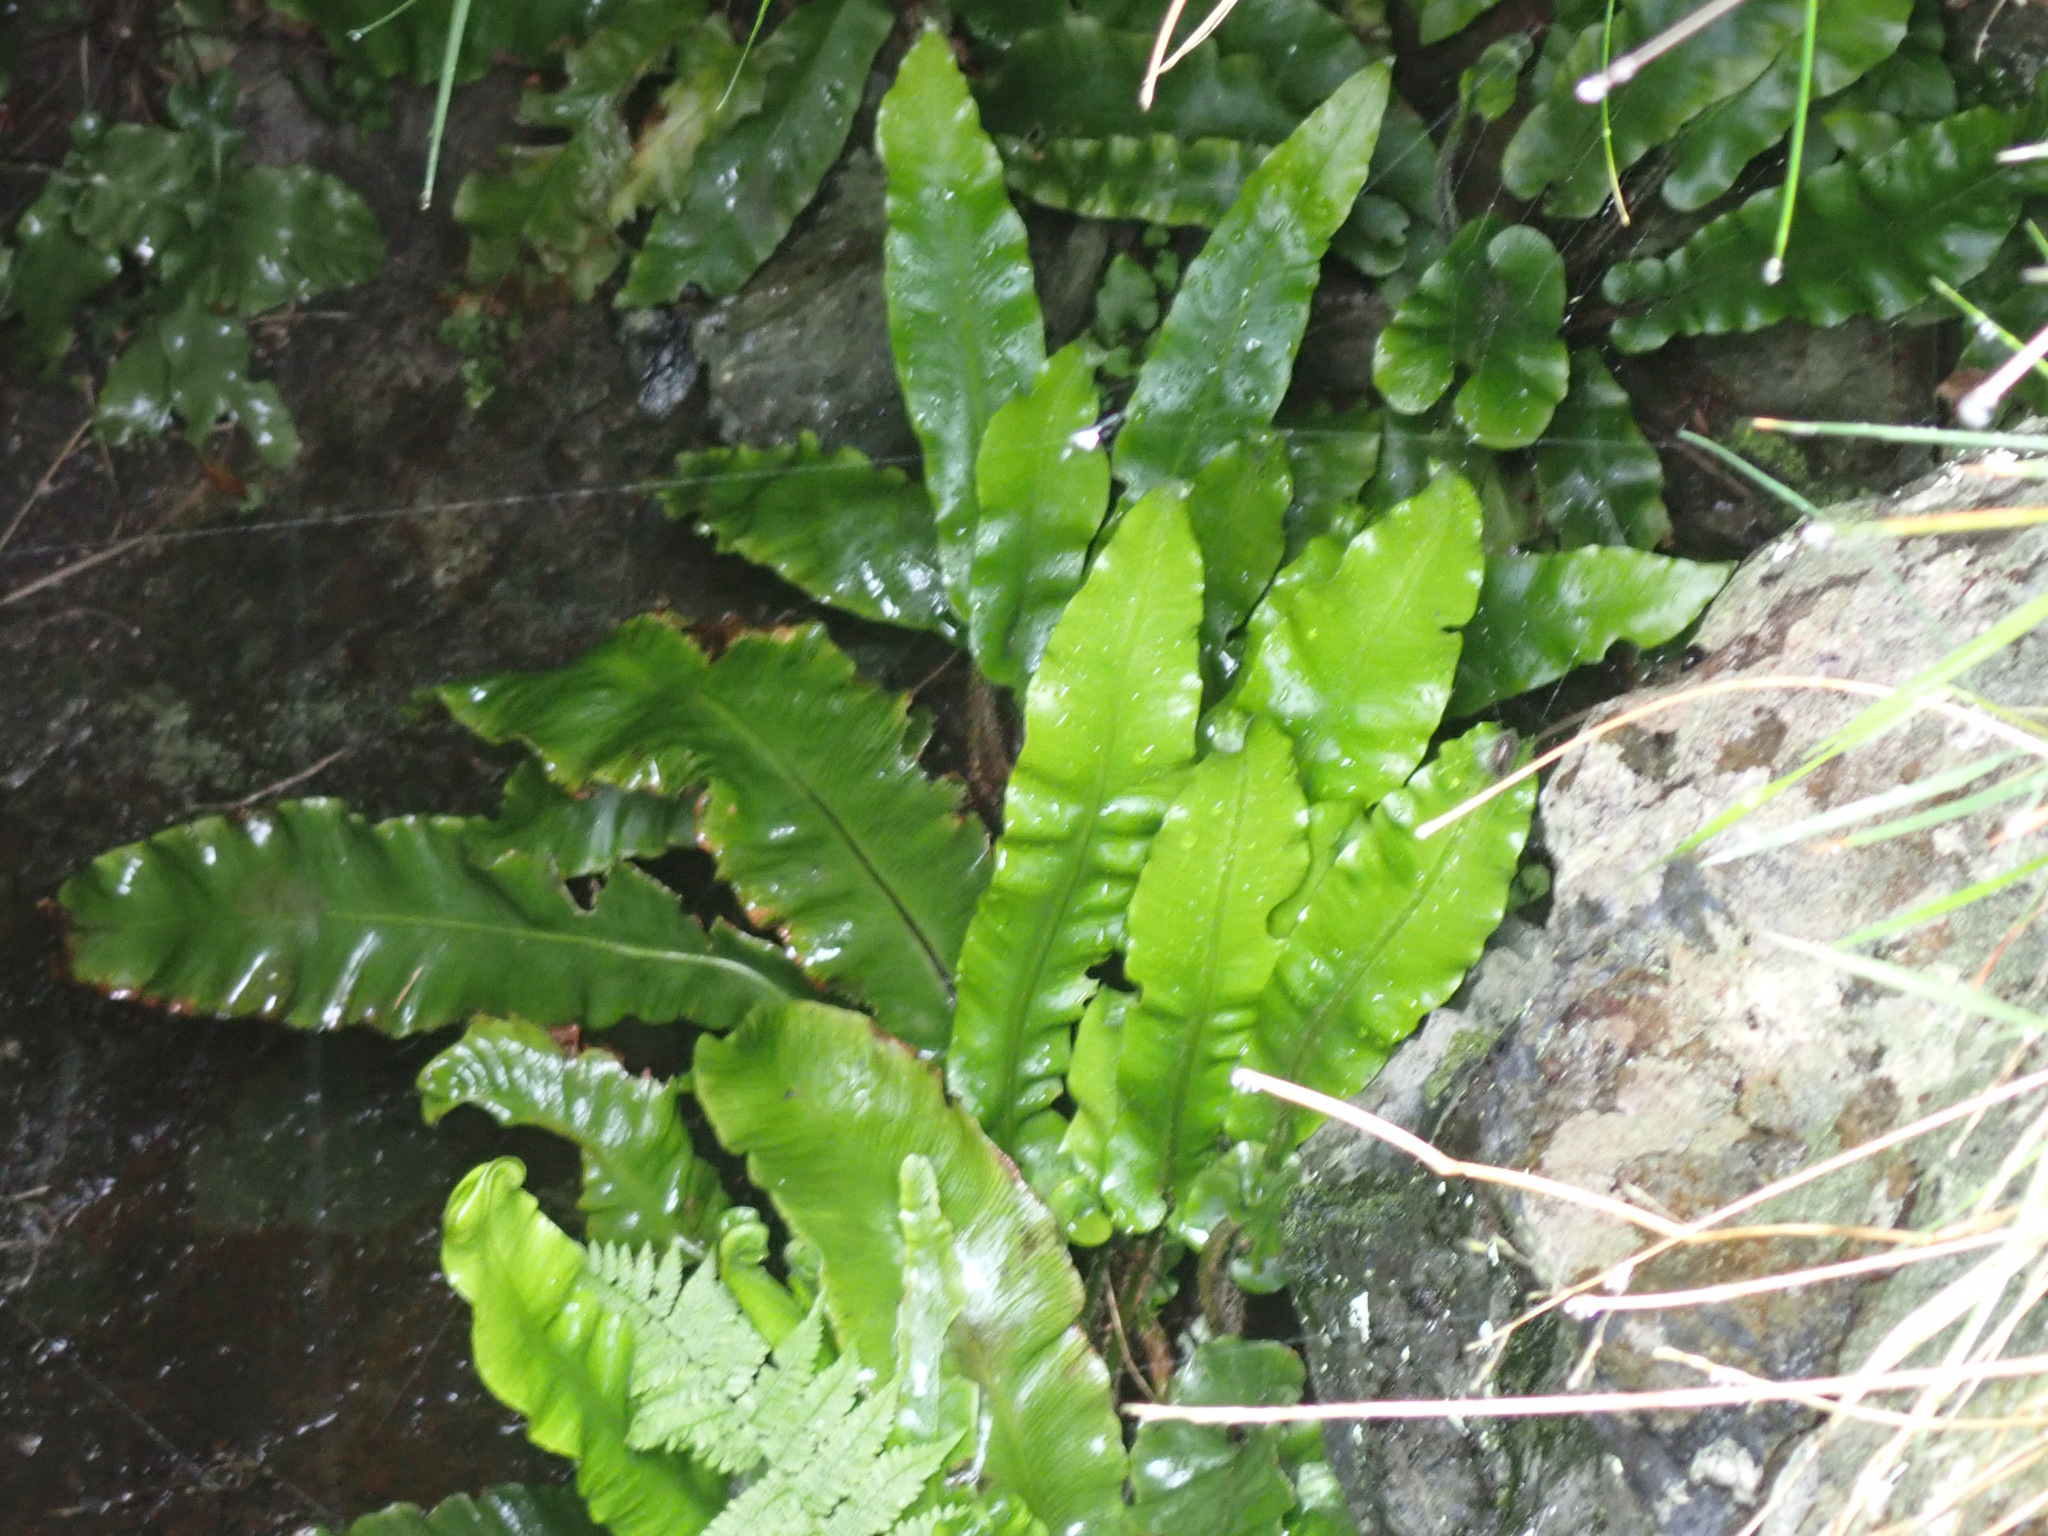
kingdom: Plantae
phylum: Tracheophyta
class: Polypodiopsida
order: Polypodiales
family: Aspleniaceae
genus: Asplenium
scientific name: Asplenium scolopendrium
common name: Hart's-tongue fern
